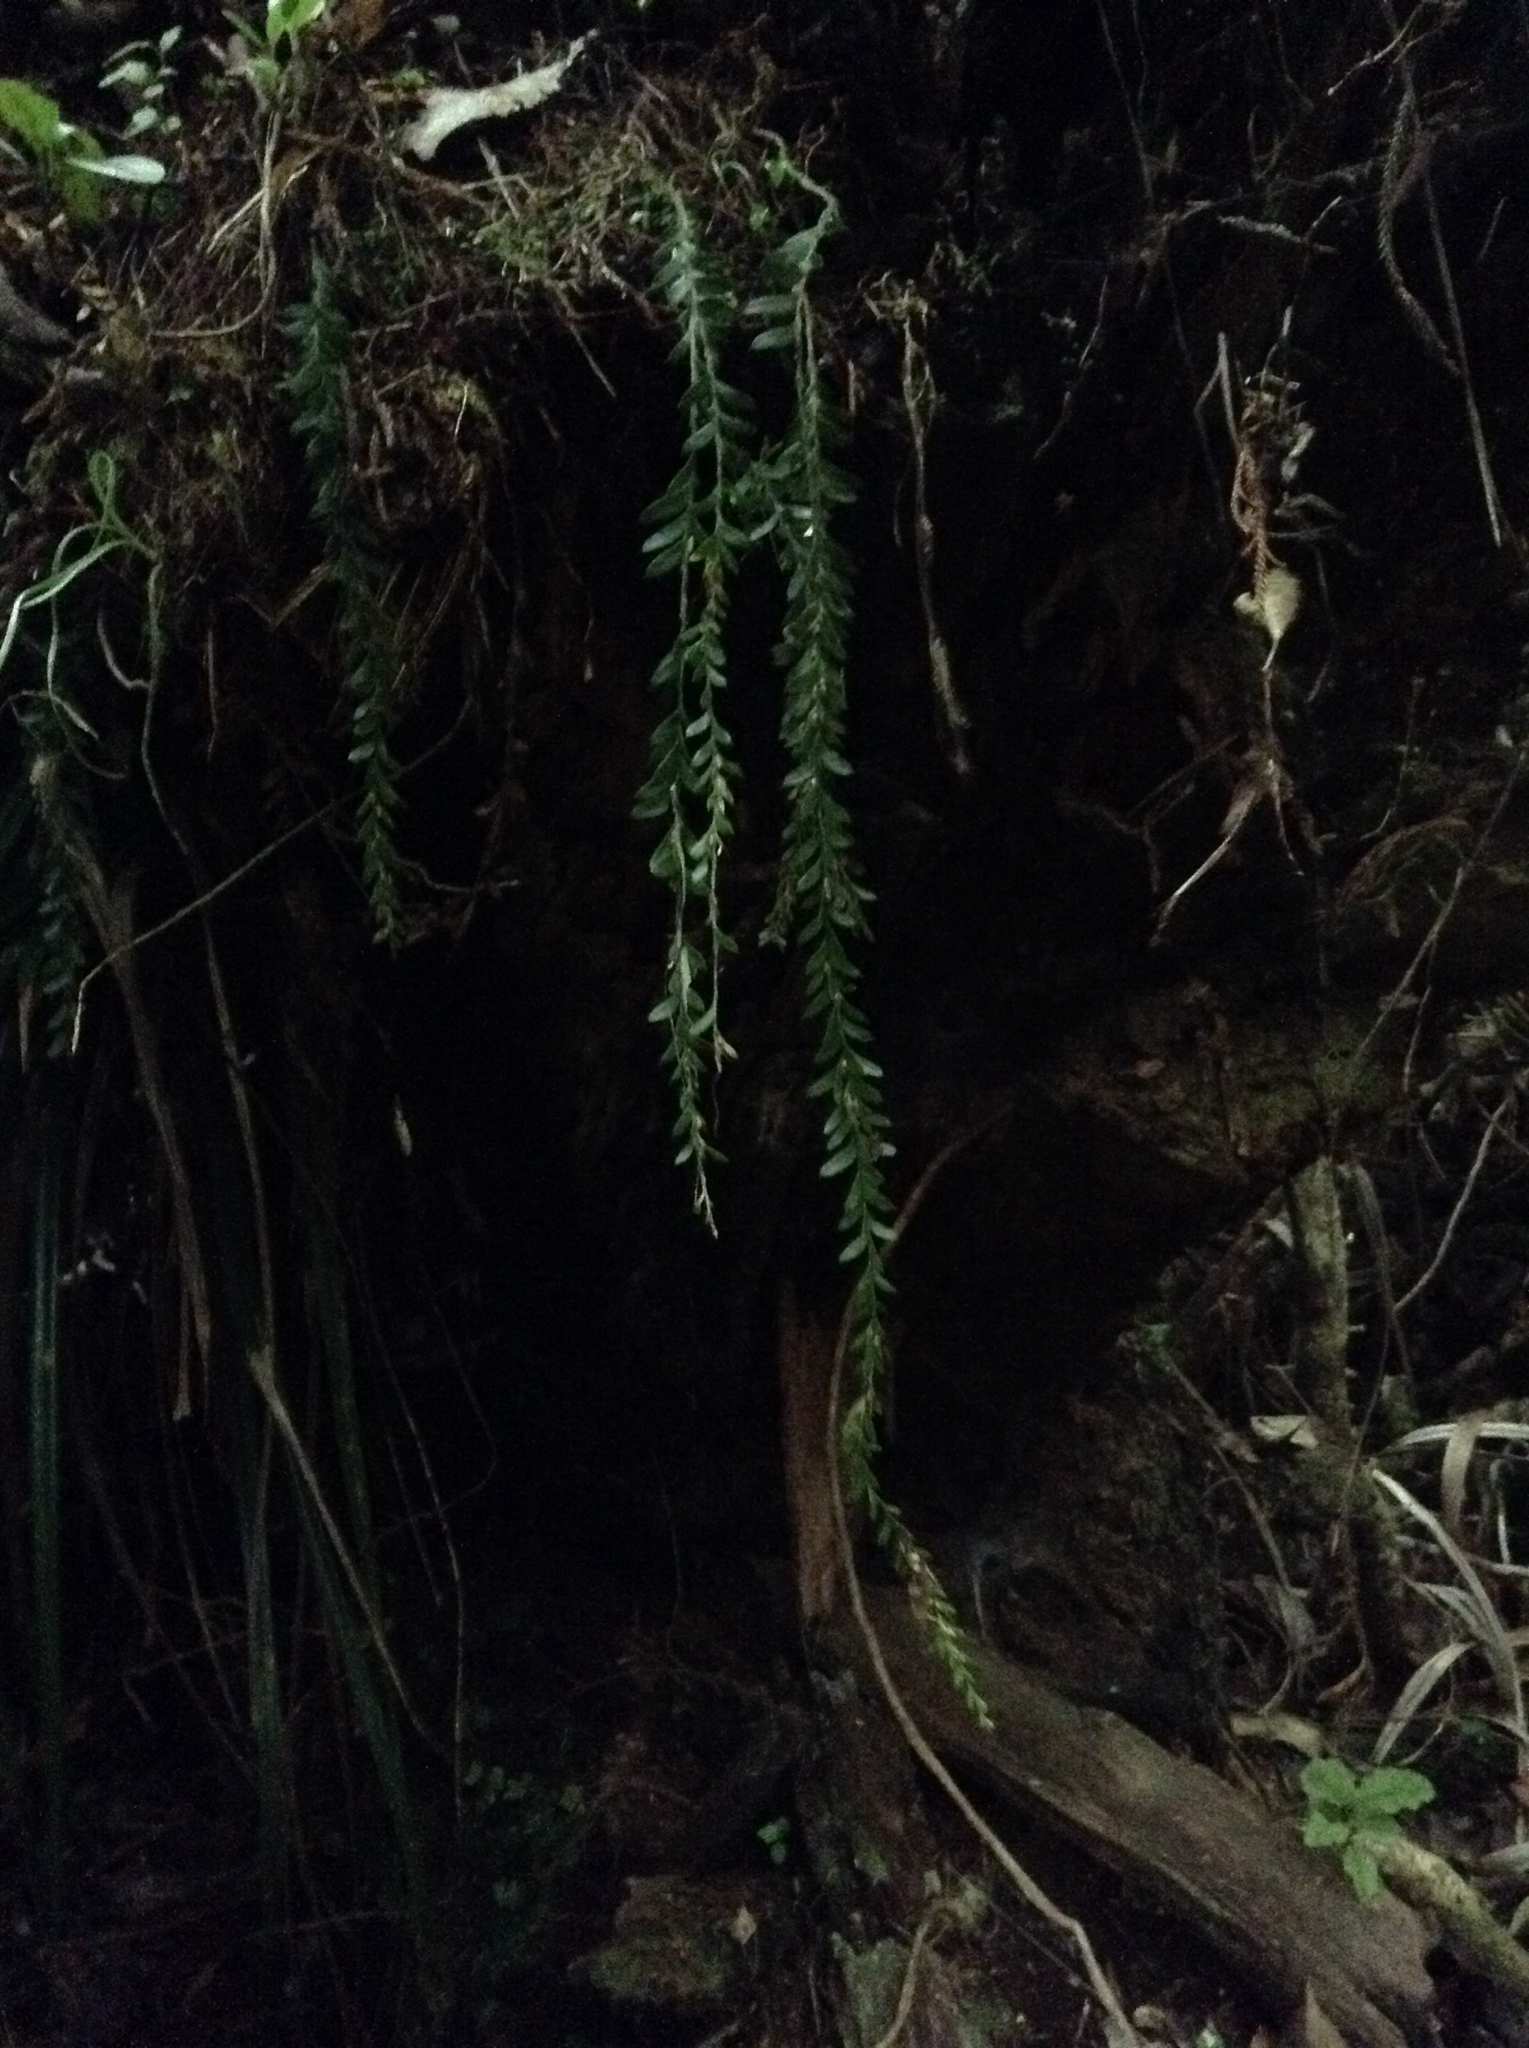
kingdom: Plantae
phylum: Tracheophyta
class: Polypodiopsida
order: Psilotales
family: Psilotaceae
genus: Tmesipteris
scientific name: Tmesipteris tannensis
